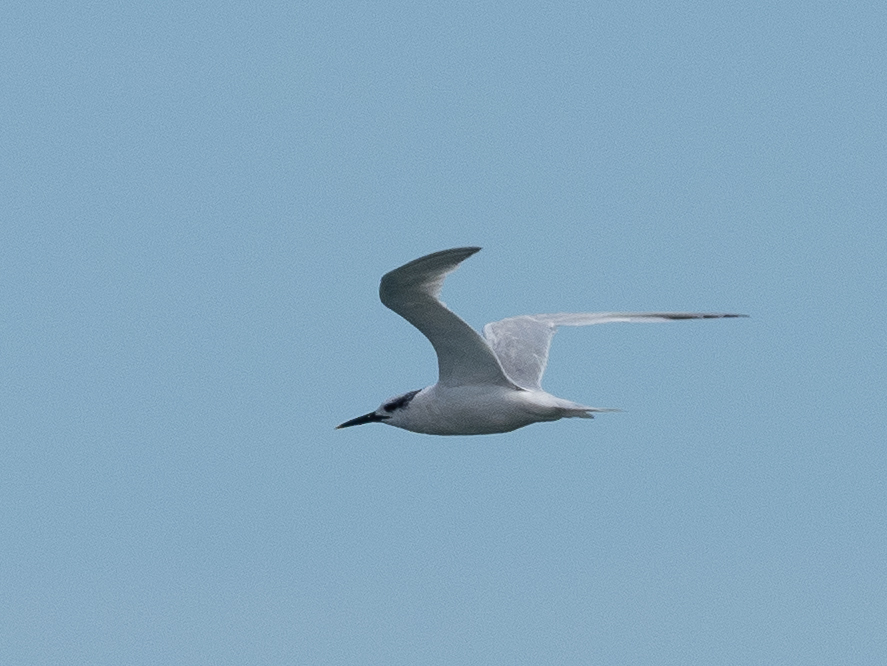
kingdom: Animalia
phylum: Chordata
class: Aves
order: Charadriiformes
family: Laridae
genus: Thalasseus
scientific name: Thalasseus sandvicensis
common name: Sandwich tern
